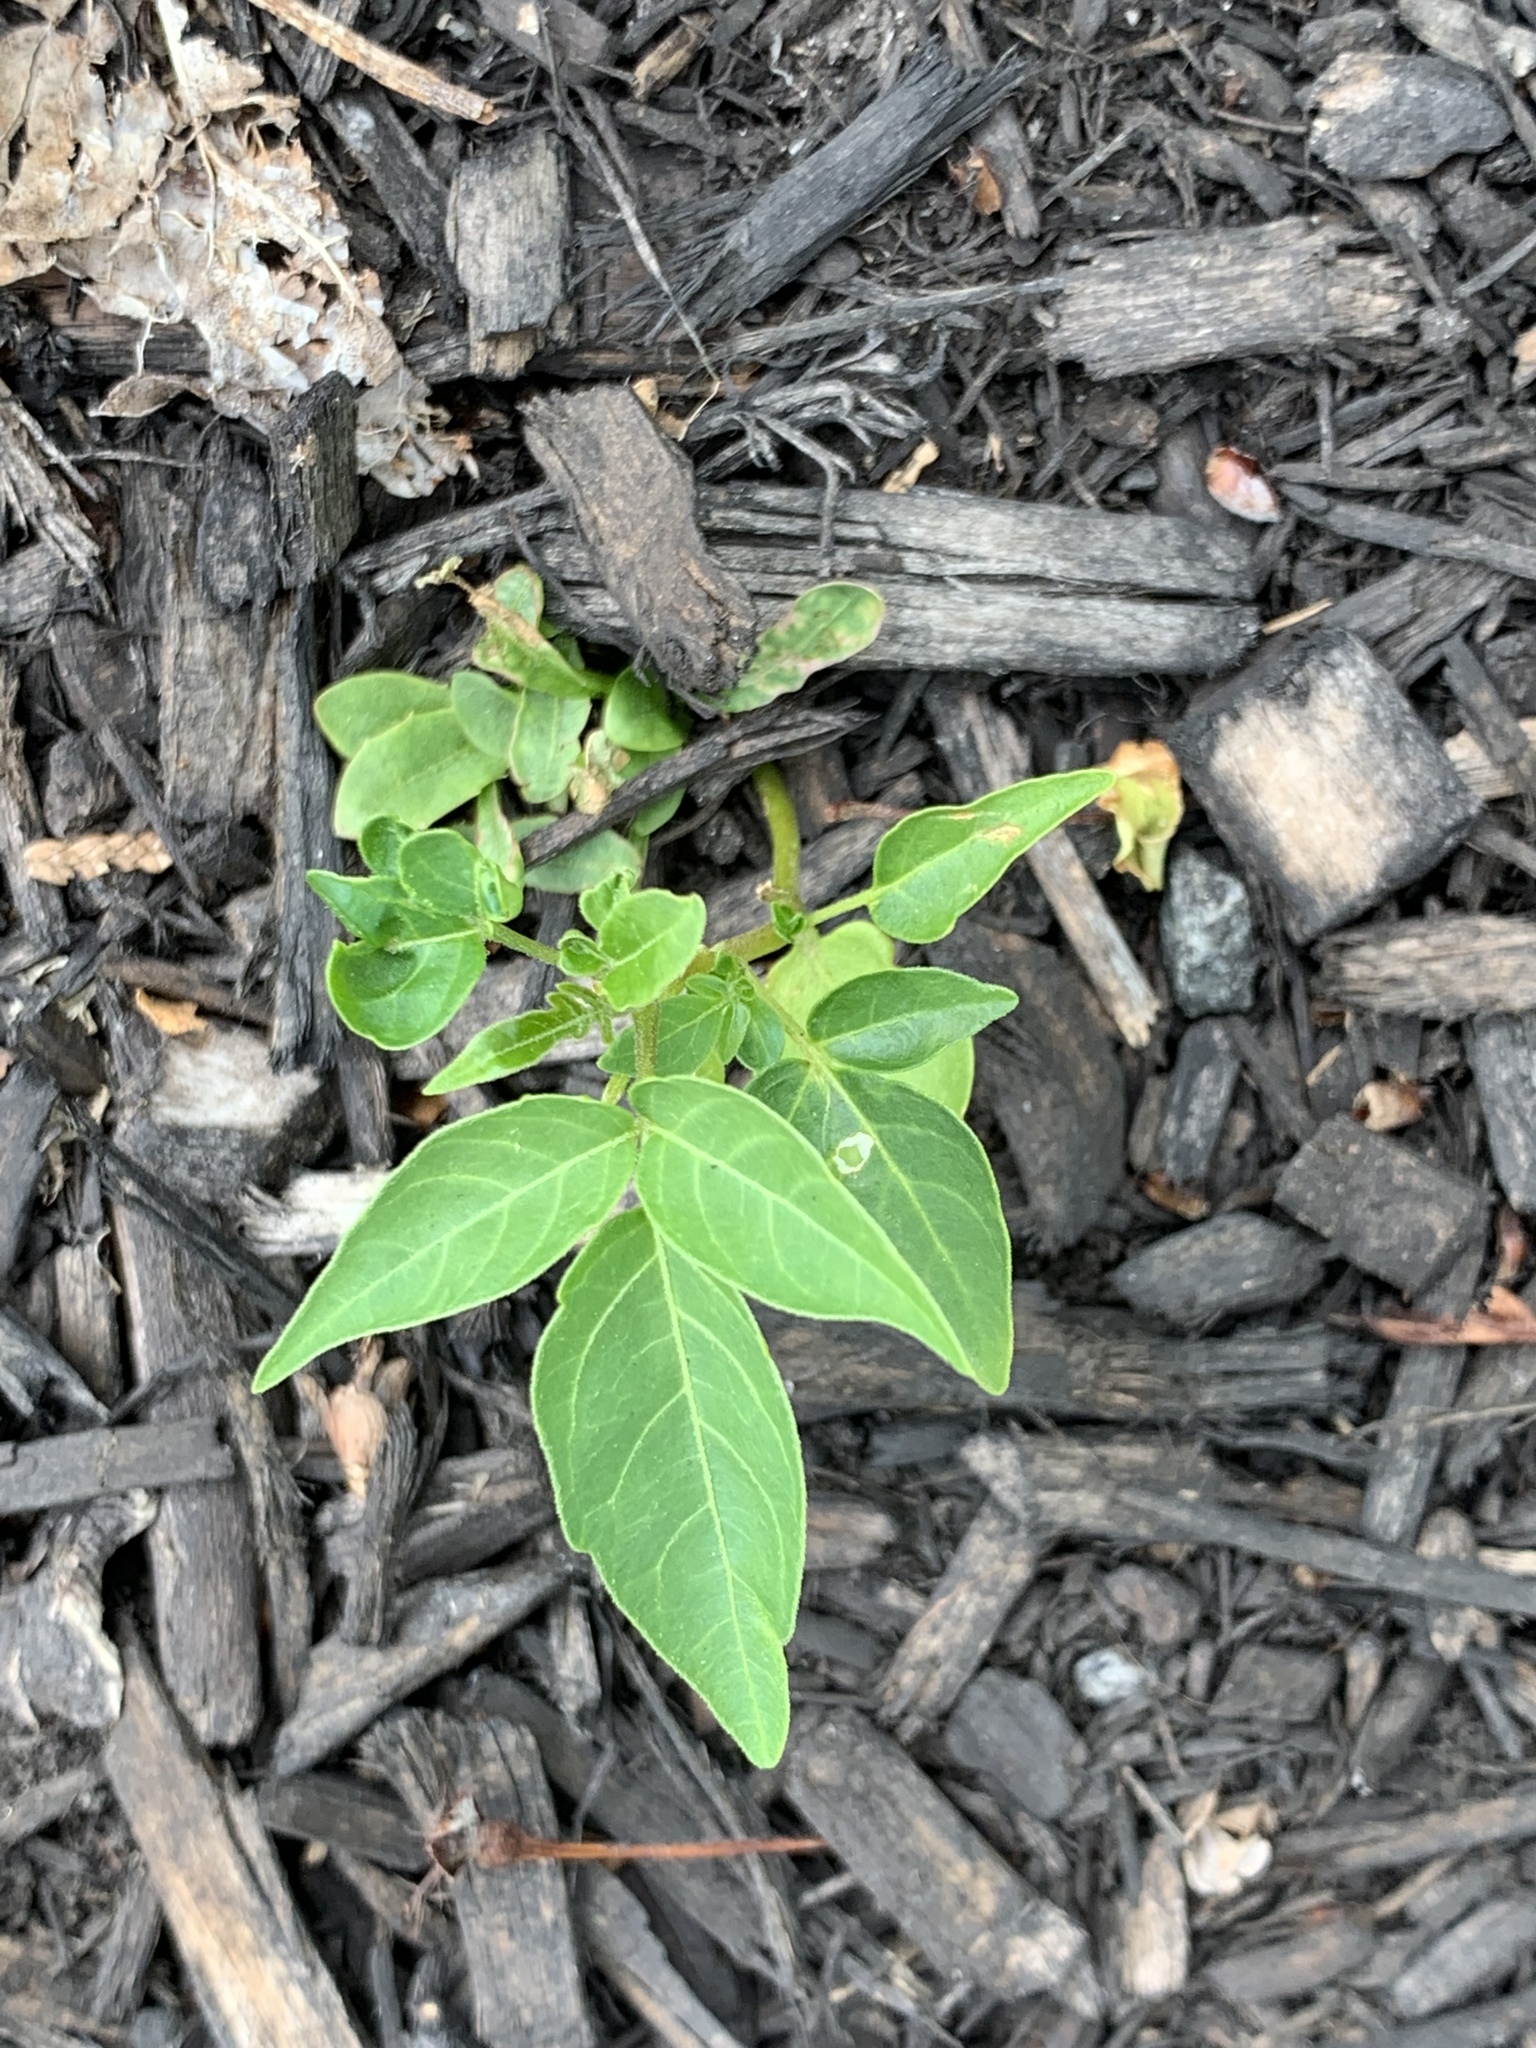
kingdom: Plantae
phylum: Tracheophyta
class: Magnoliopsida
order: Sapindales
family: Simaroubaceae
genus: Ailanthus
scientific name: Ailanthus altissima
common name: Tree-of-heaven
